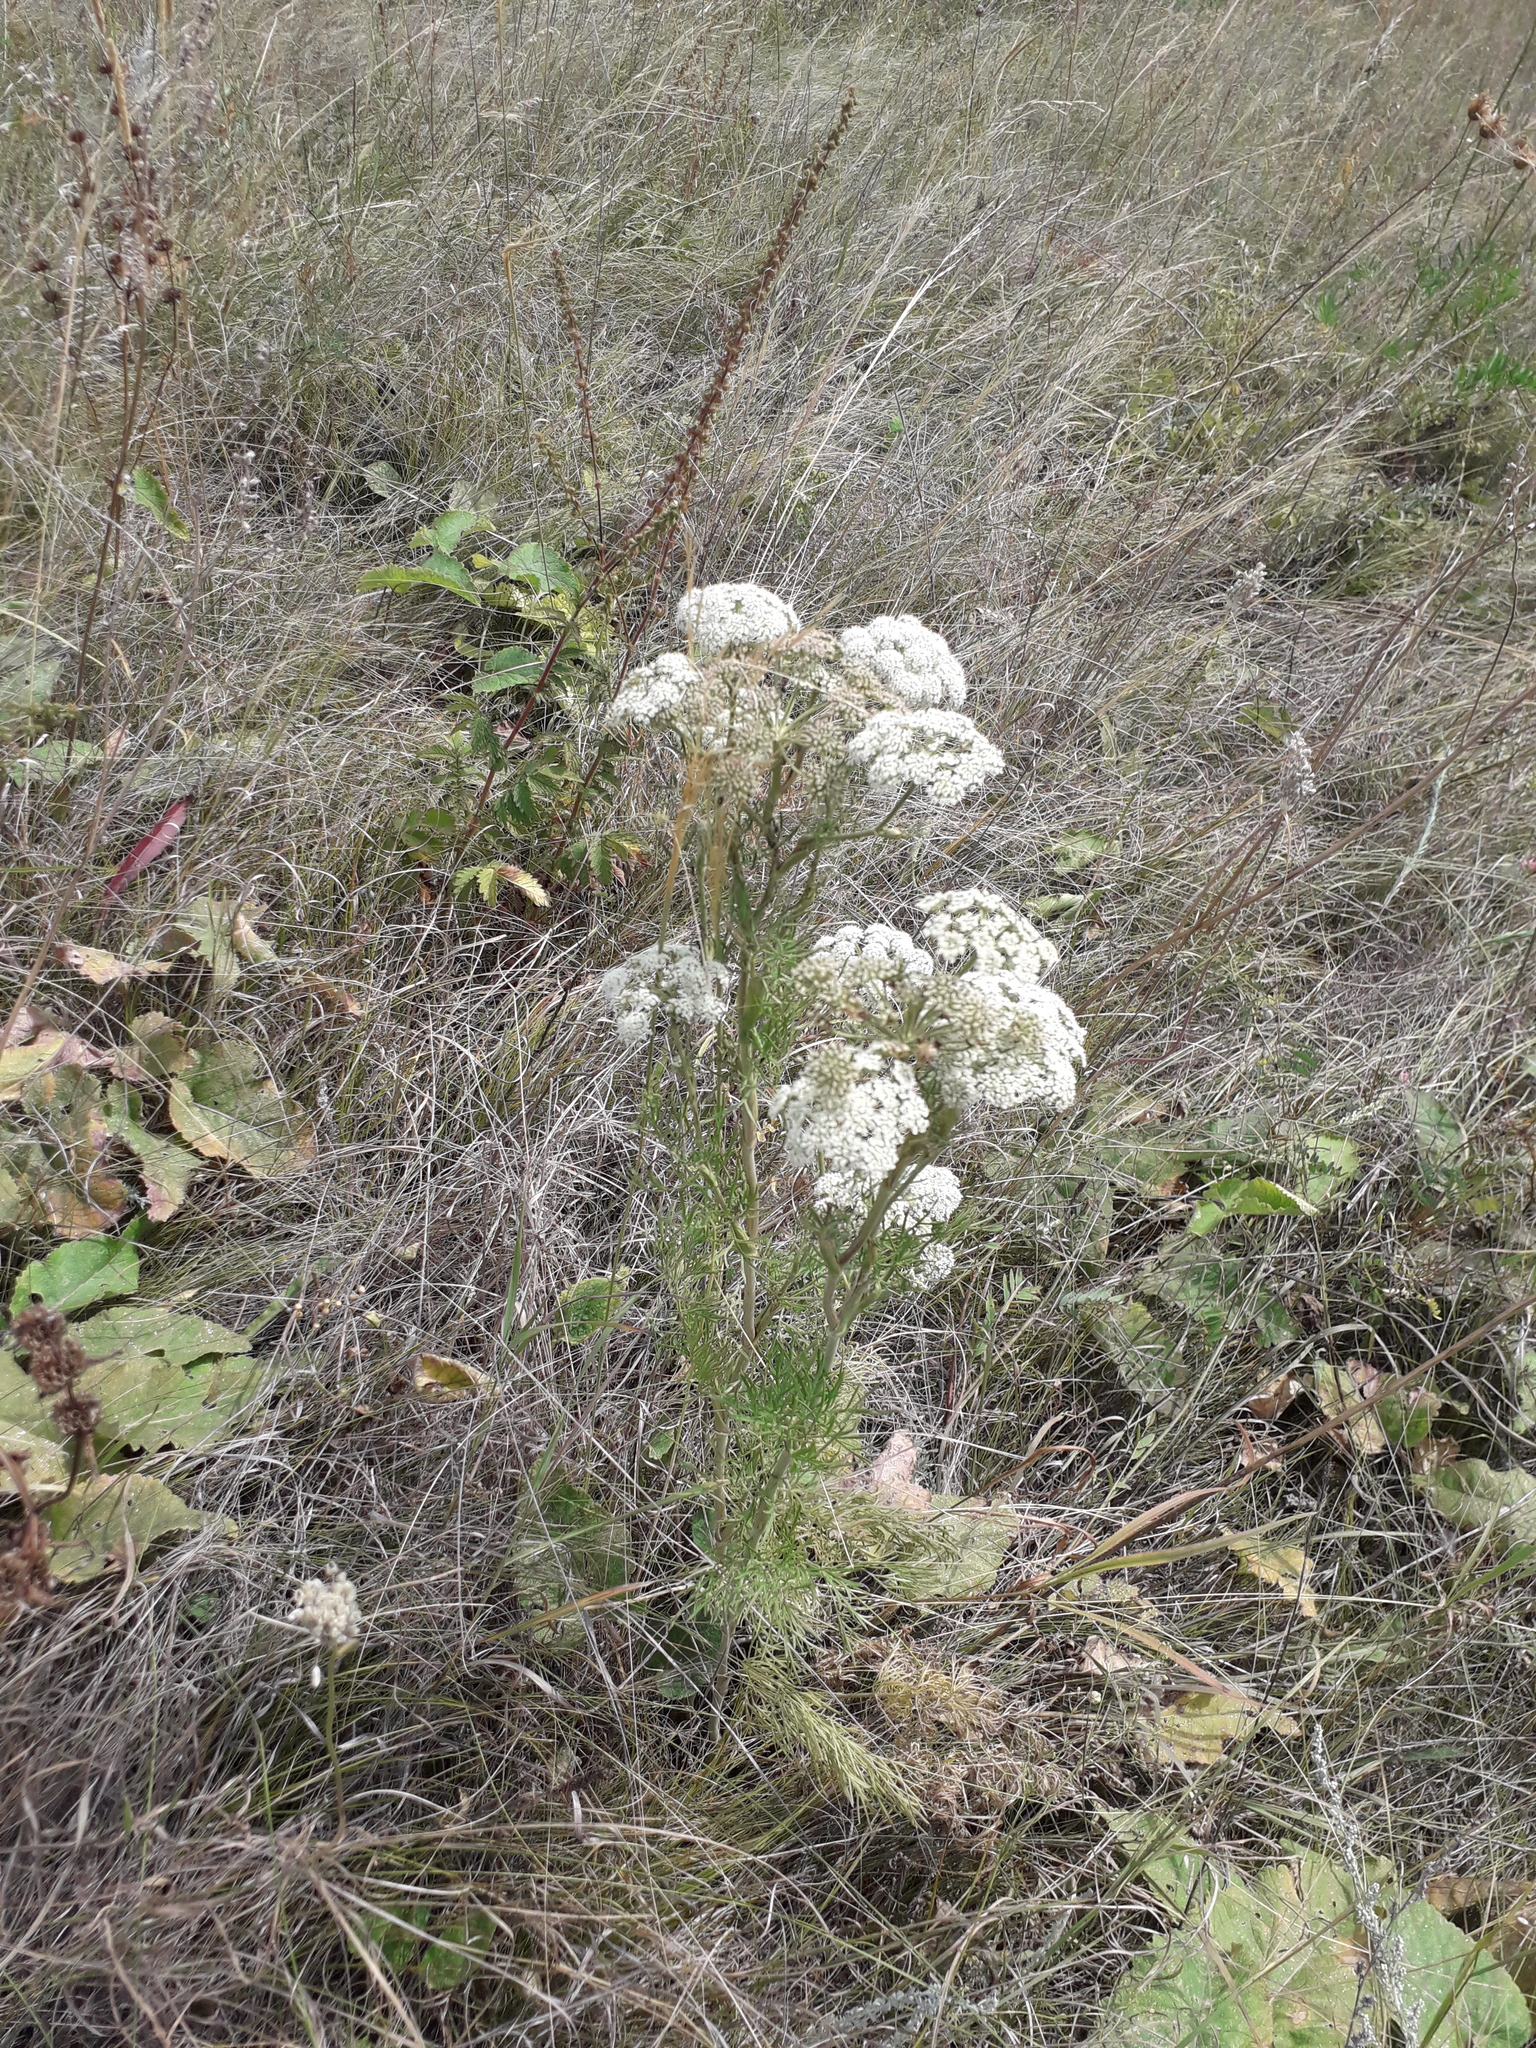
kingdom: Plantae
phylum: Tracheophyta
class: Magnoliopsida
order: Apiales
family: Apiaceae
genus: Seseli
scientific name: Seseli annuum
